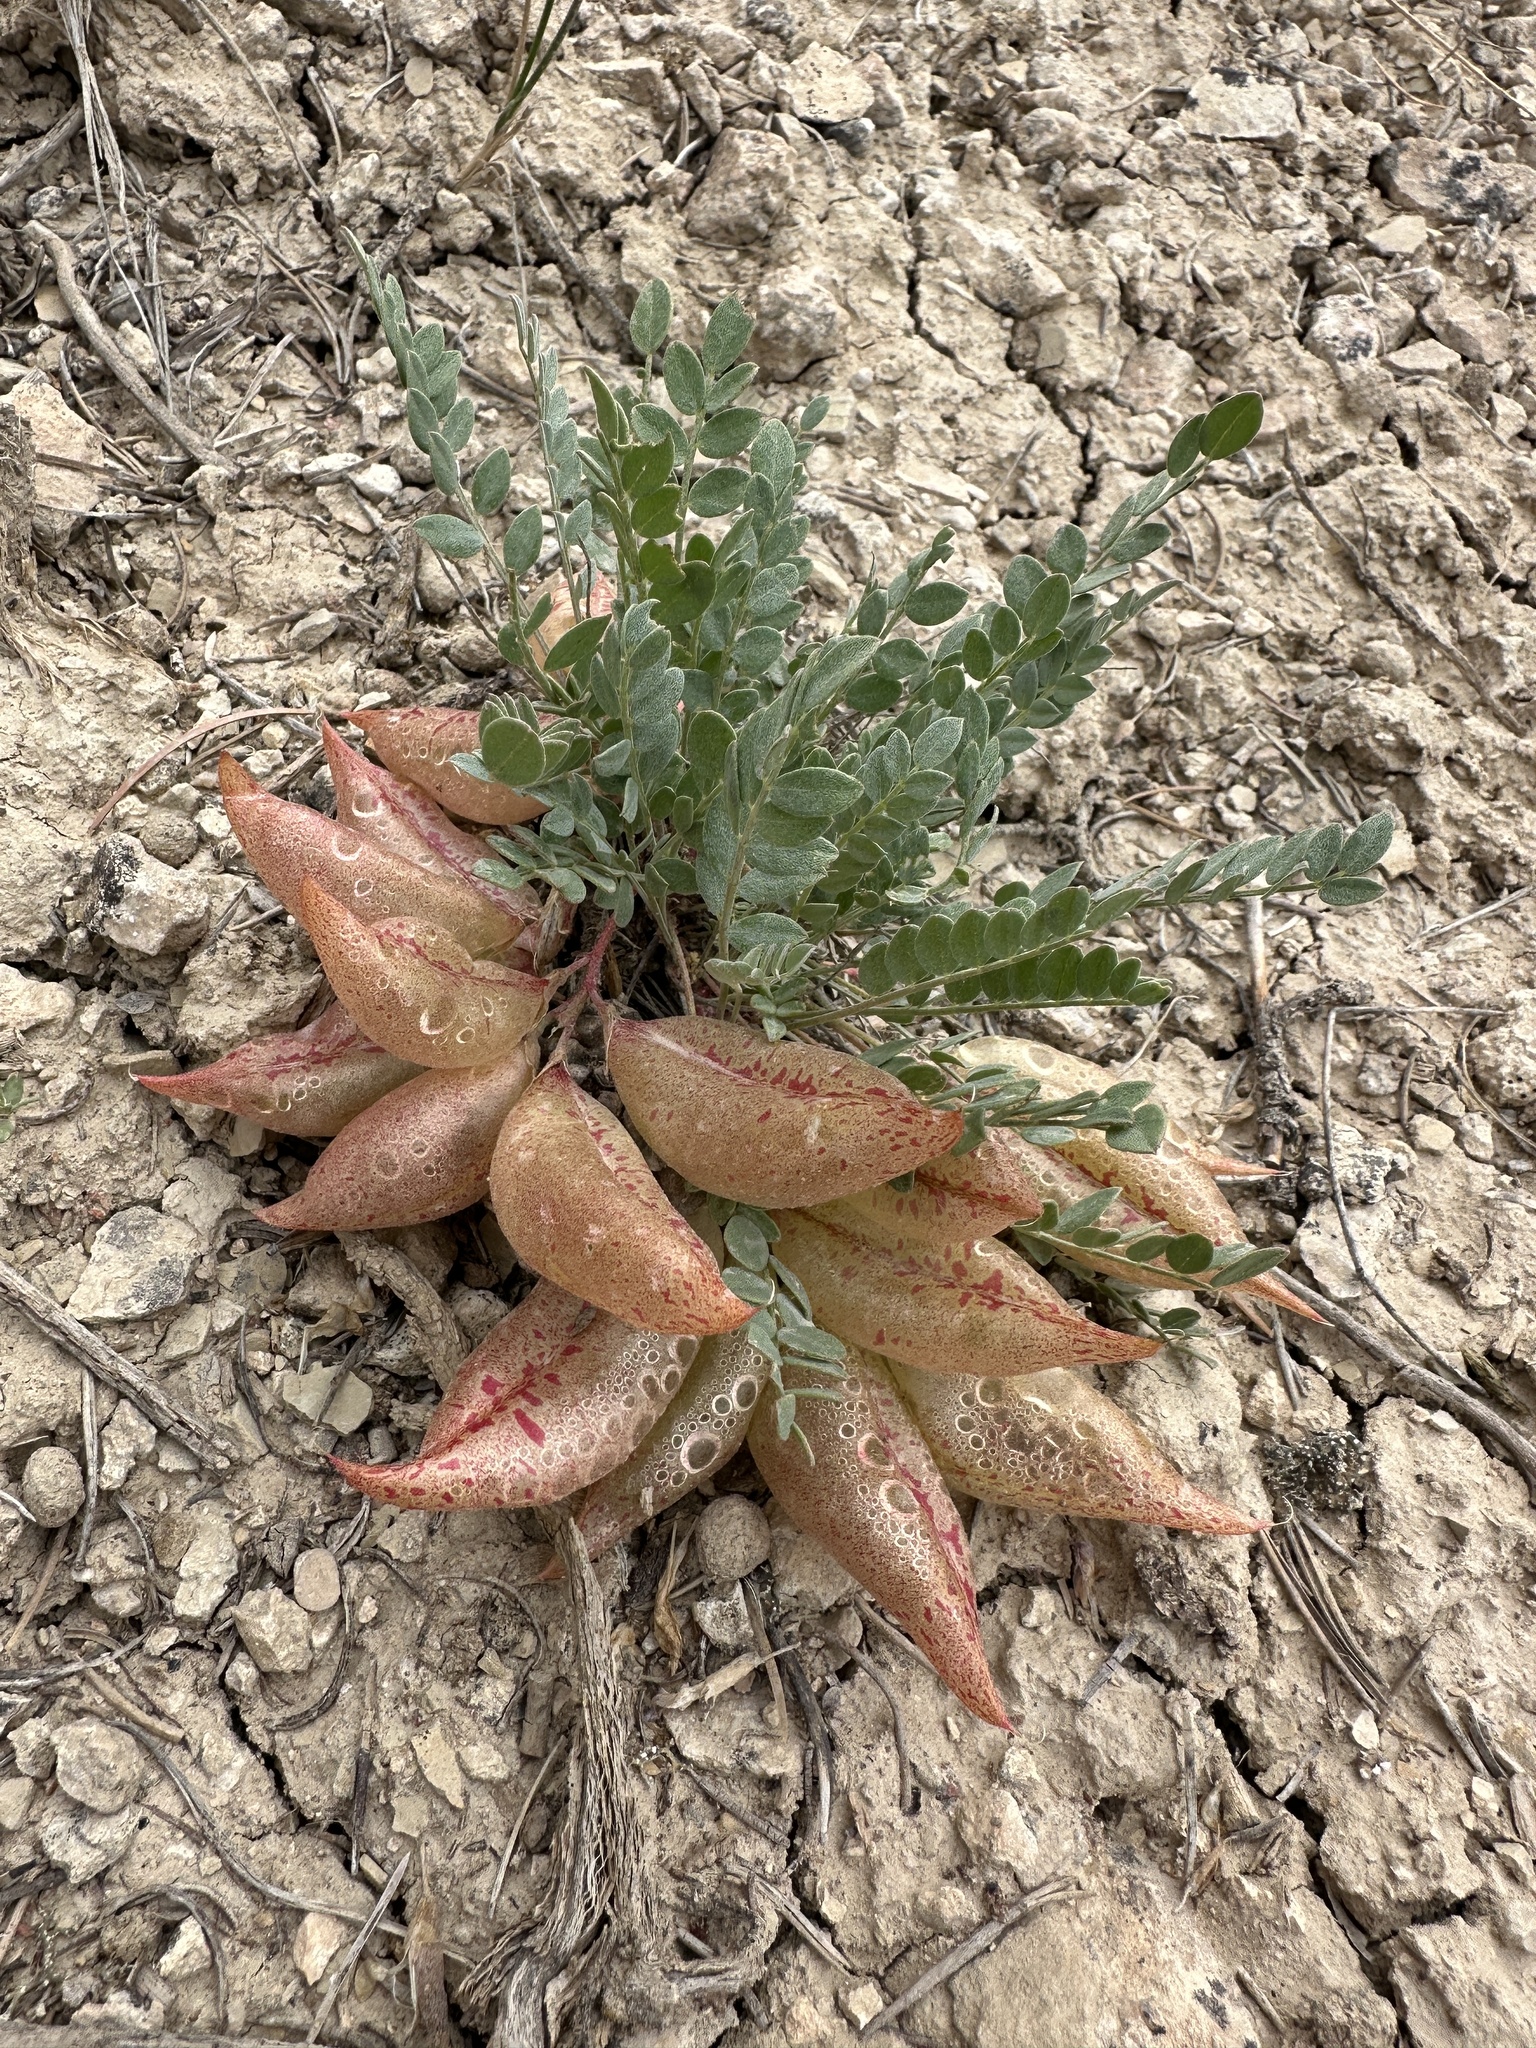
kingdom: Plantae
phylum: Tracheophyta
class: Magnoliopsida
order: Fabales
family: Fabaceae
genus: Astragalus
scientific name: Astragalus megacarpus
